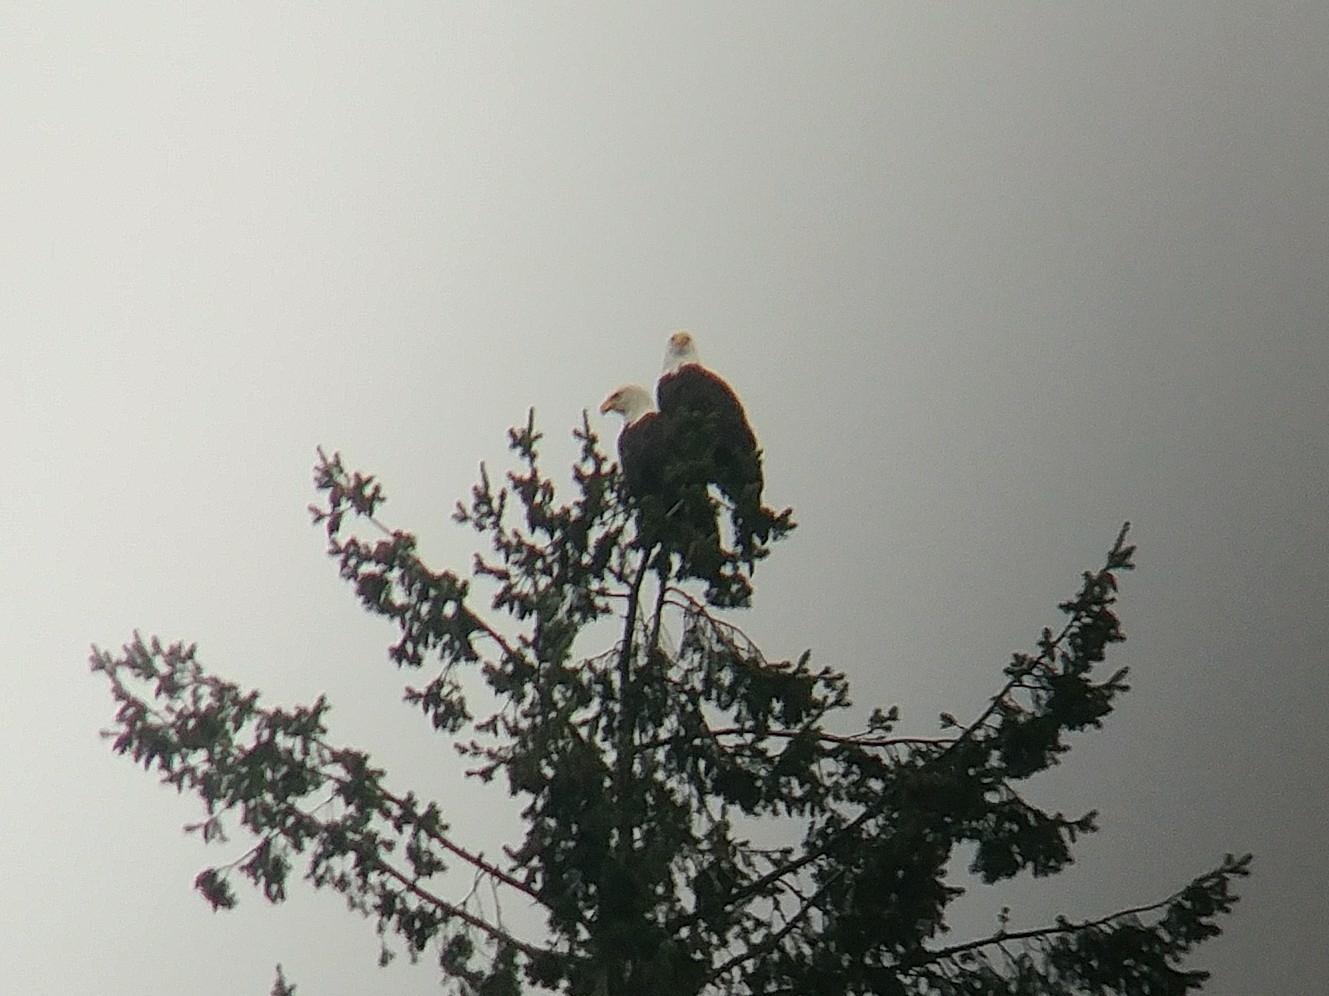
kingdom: Animalia
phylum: Chordata
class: Aves
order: Accipitriformes
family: Accipitridae
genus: Haliaeetus
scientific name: Haliaeetus leucocephalus
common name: Bald eagle
